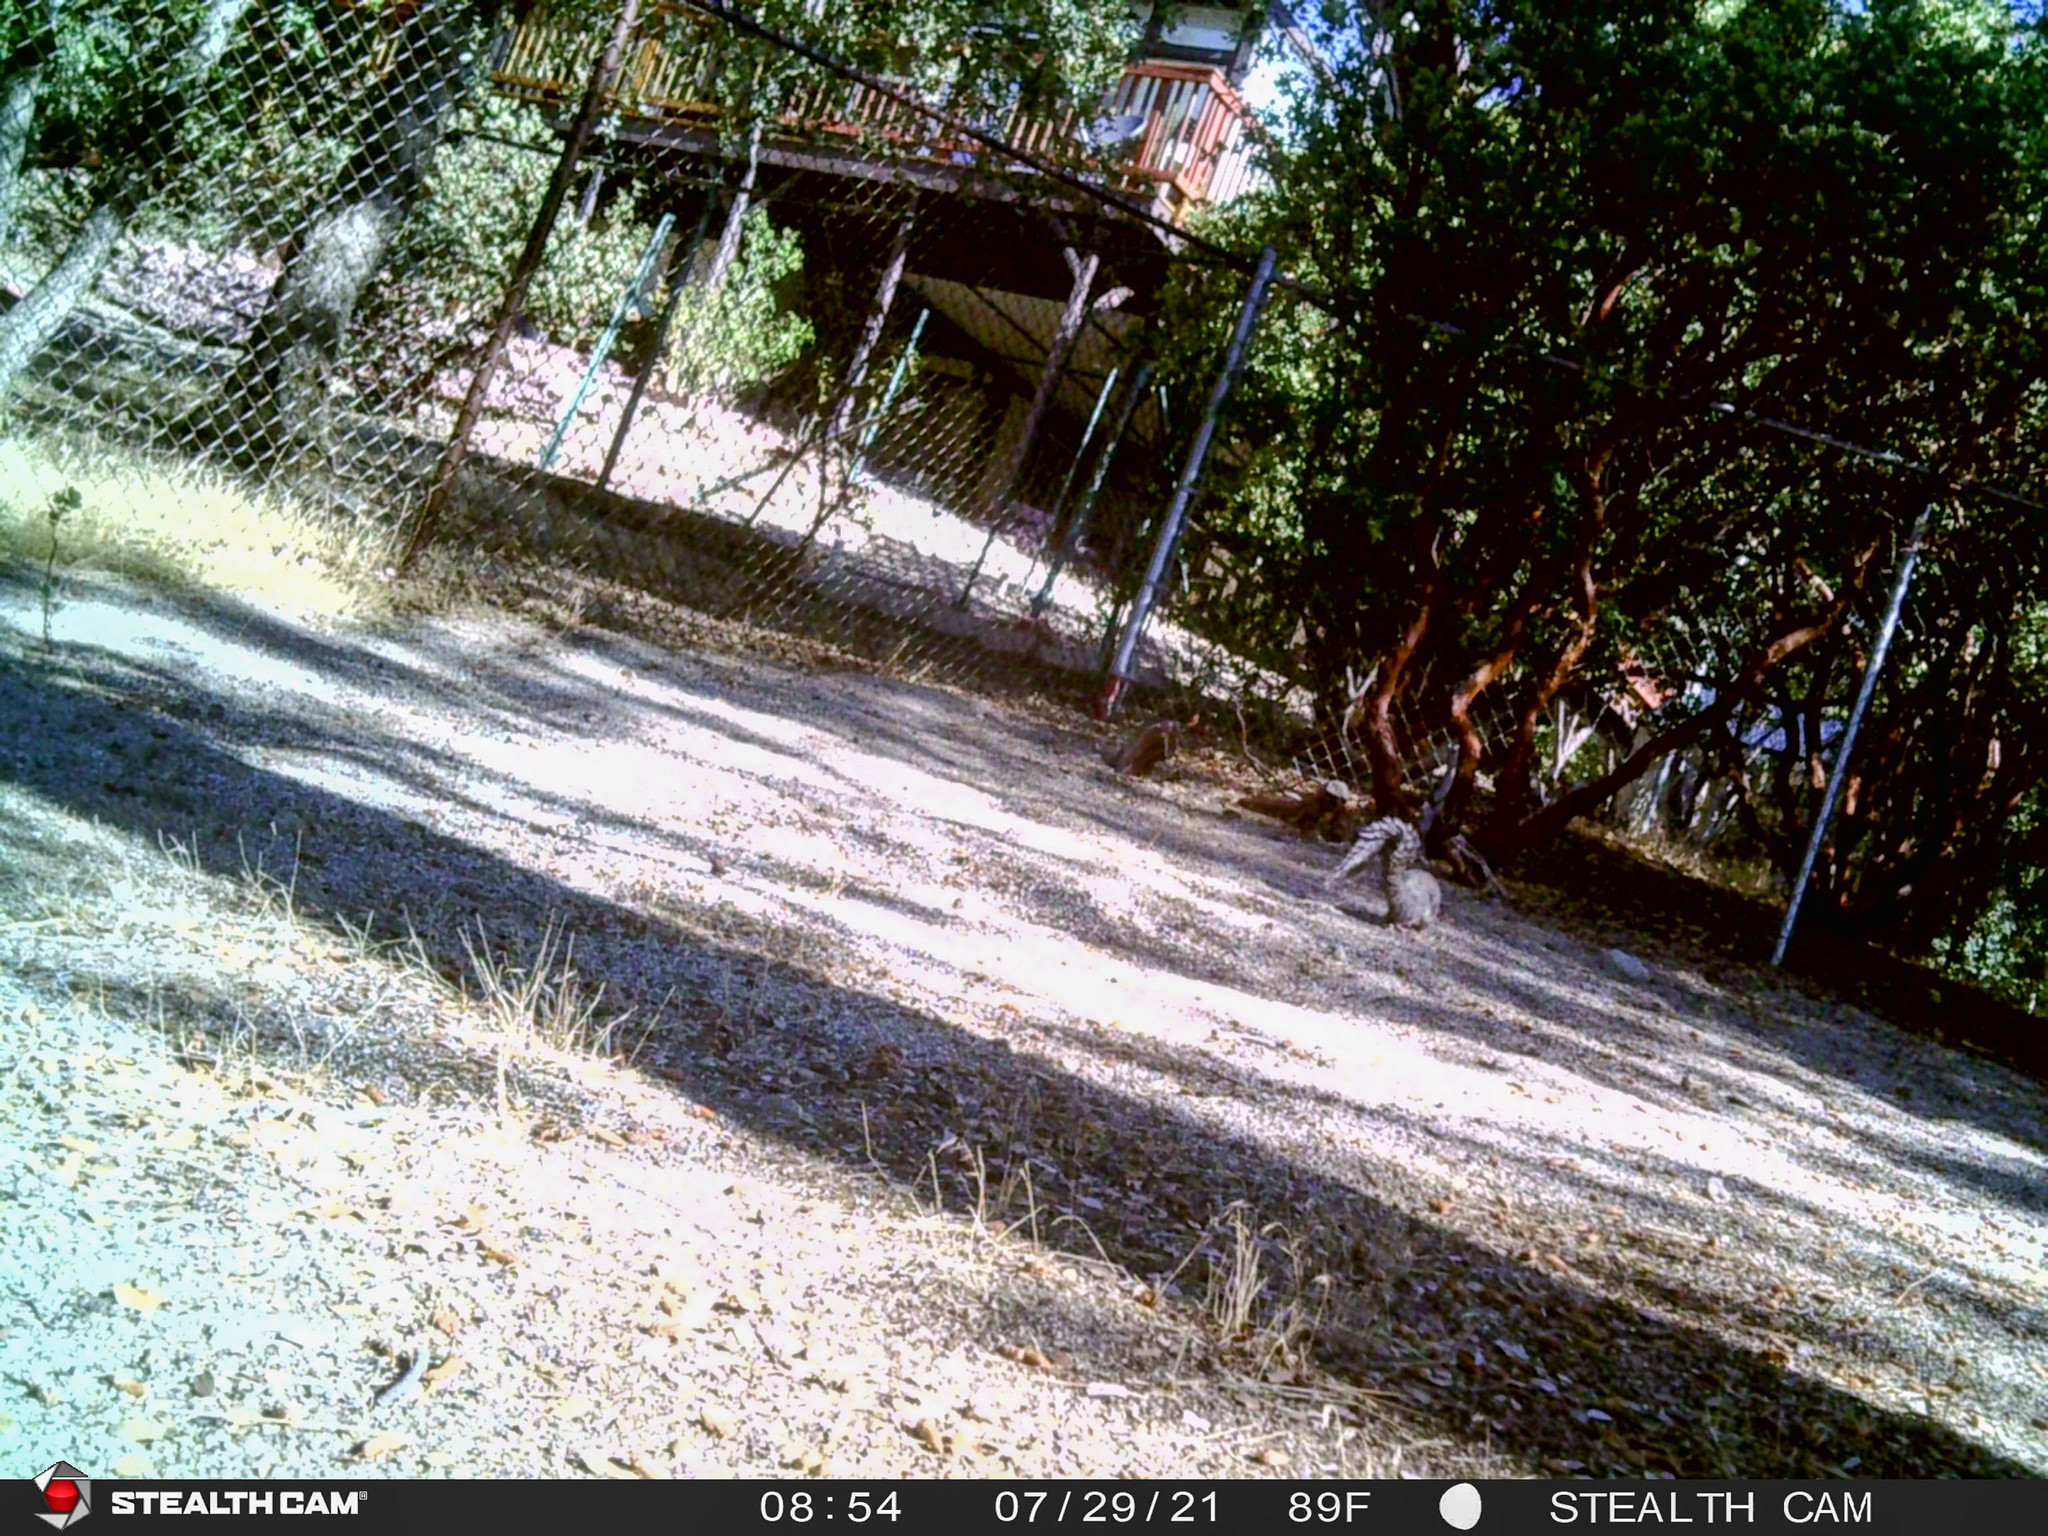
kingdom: Animalia
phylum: Chordata
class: Mammalia
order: Rodentia
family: Sciuridae
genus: Sciurus
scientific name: Sciurus griseus
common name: Western gray squirrel
